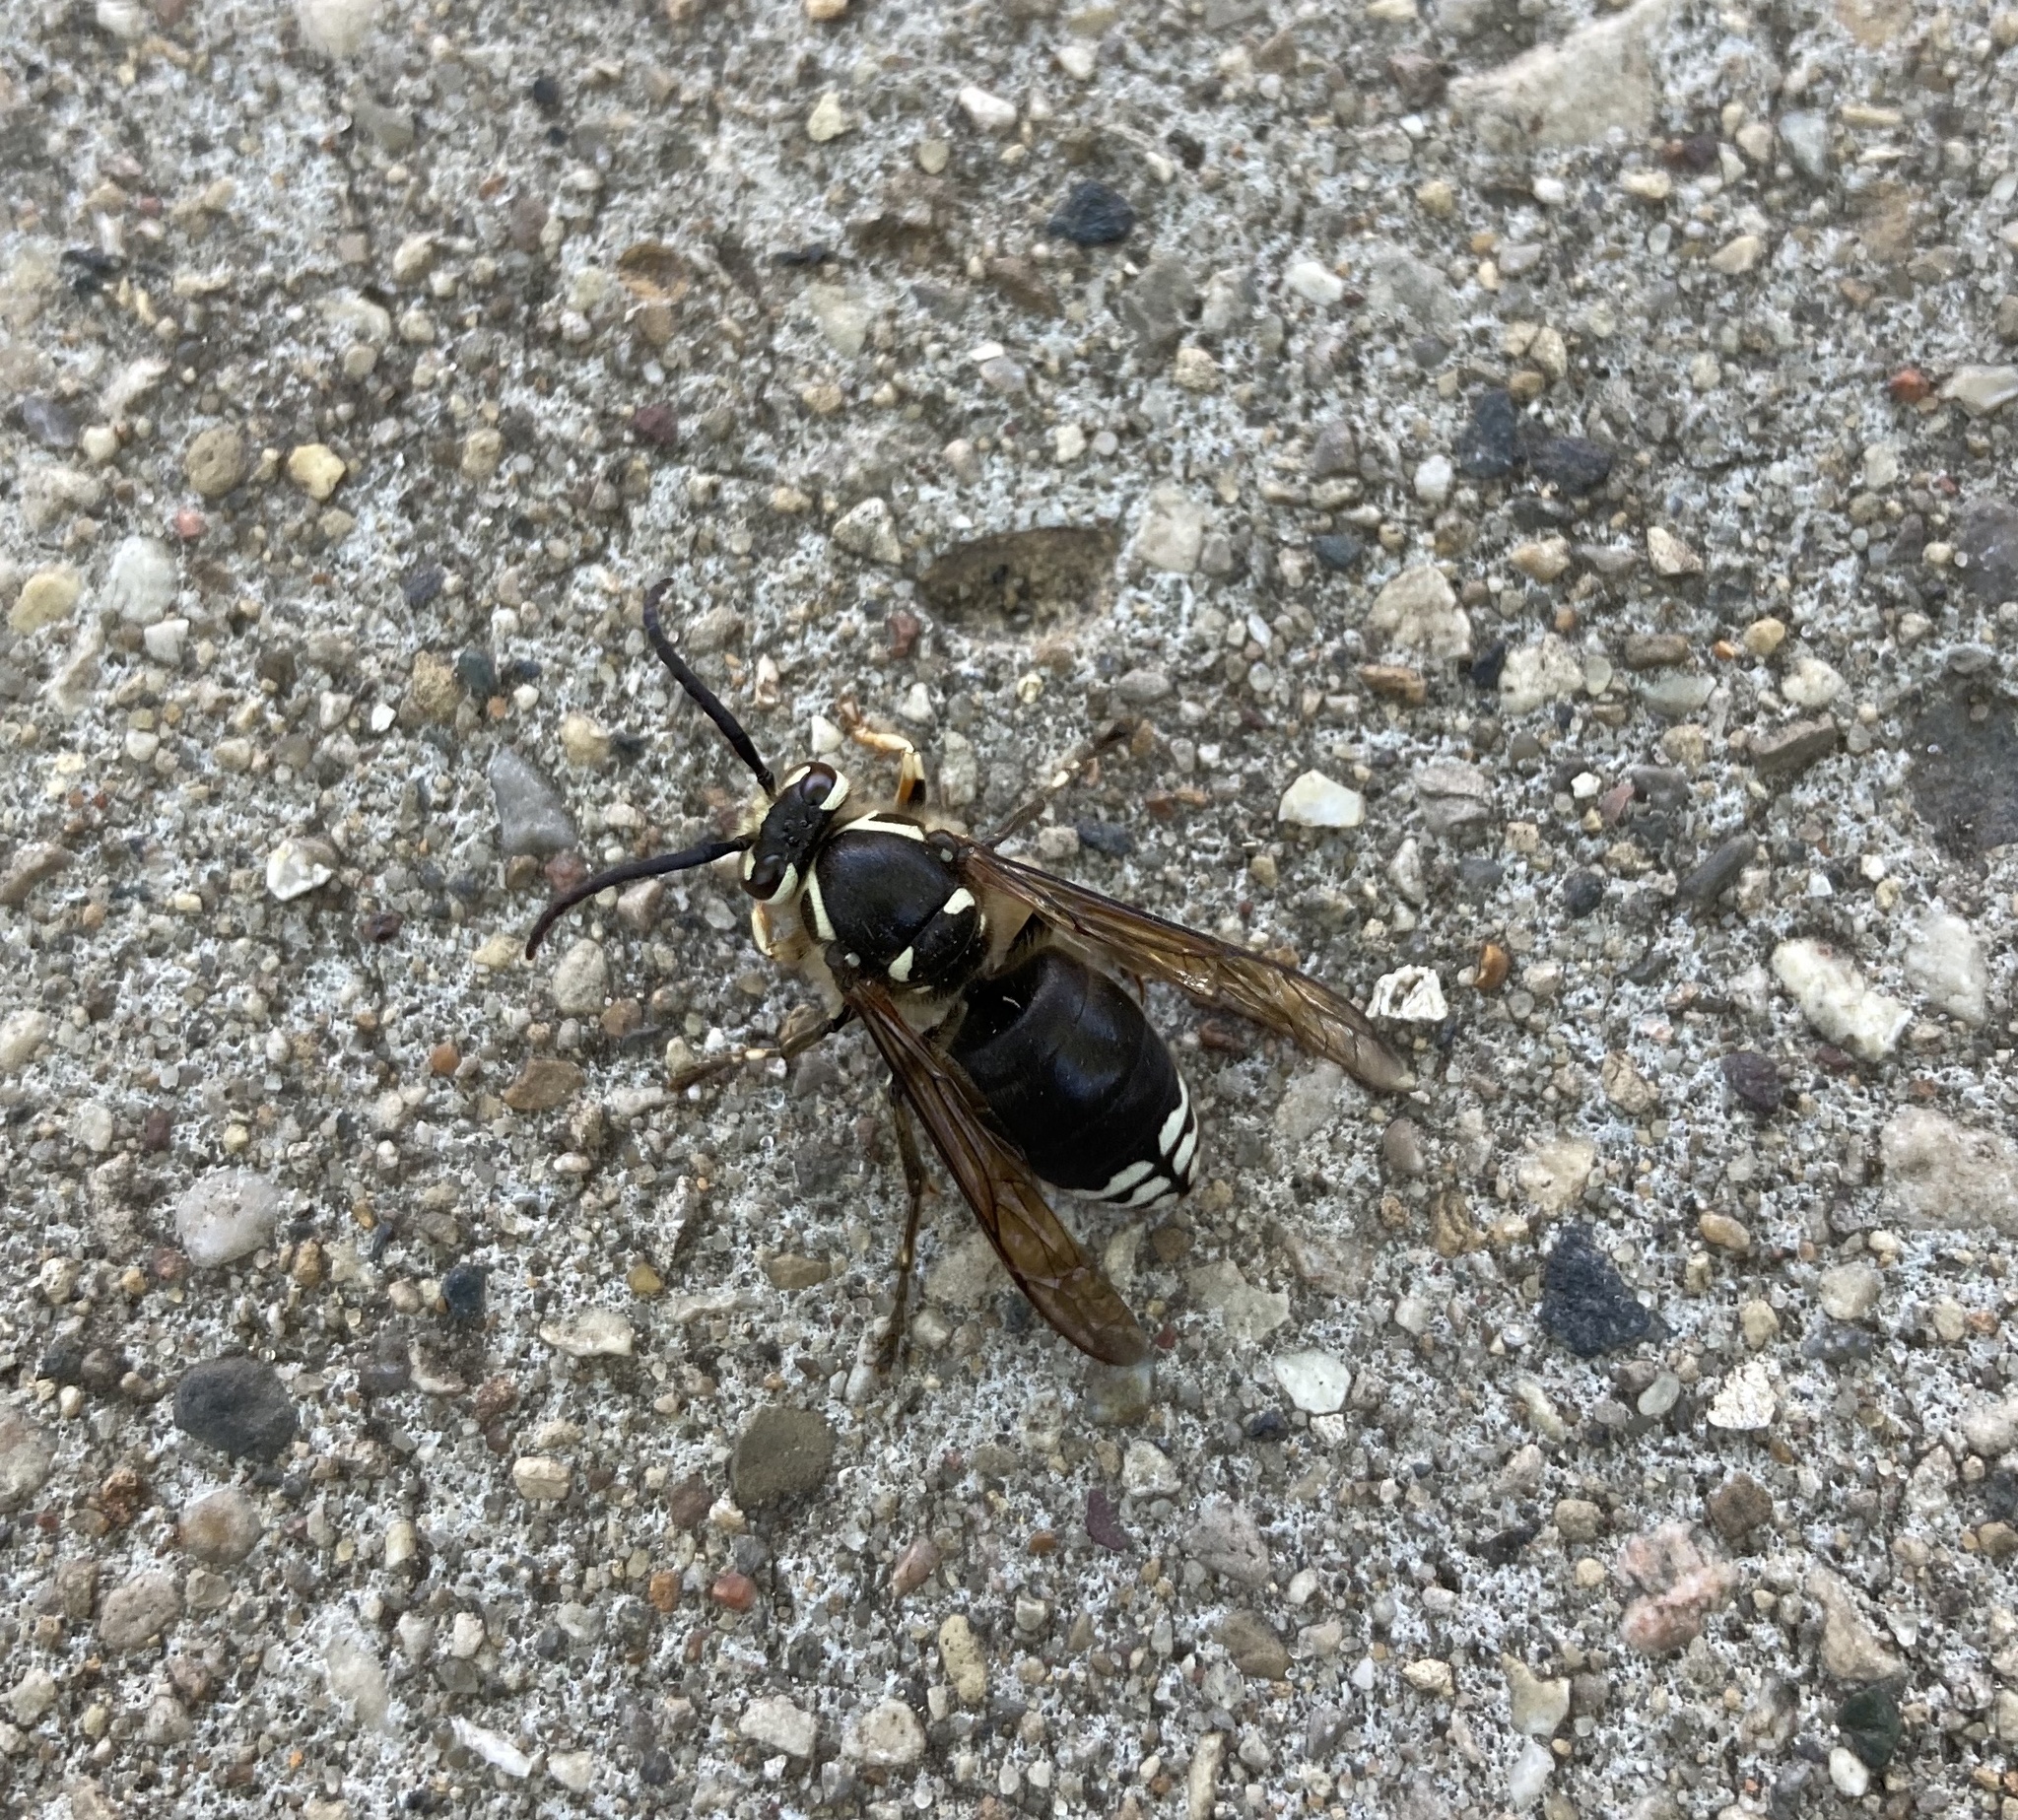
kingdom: Animalia
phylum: Arthropoda
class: Insecta
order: Hymenoptera
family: Vespidae
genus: Dolichovespula
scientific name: Dolichovespula maculata
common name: Bald-faced hornet
